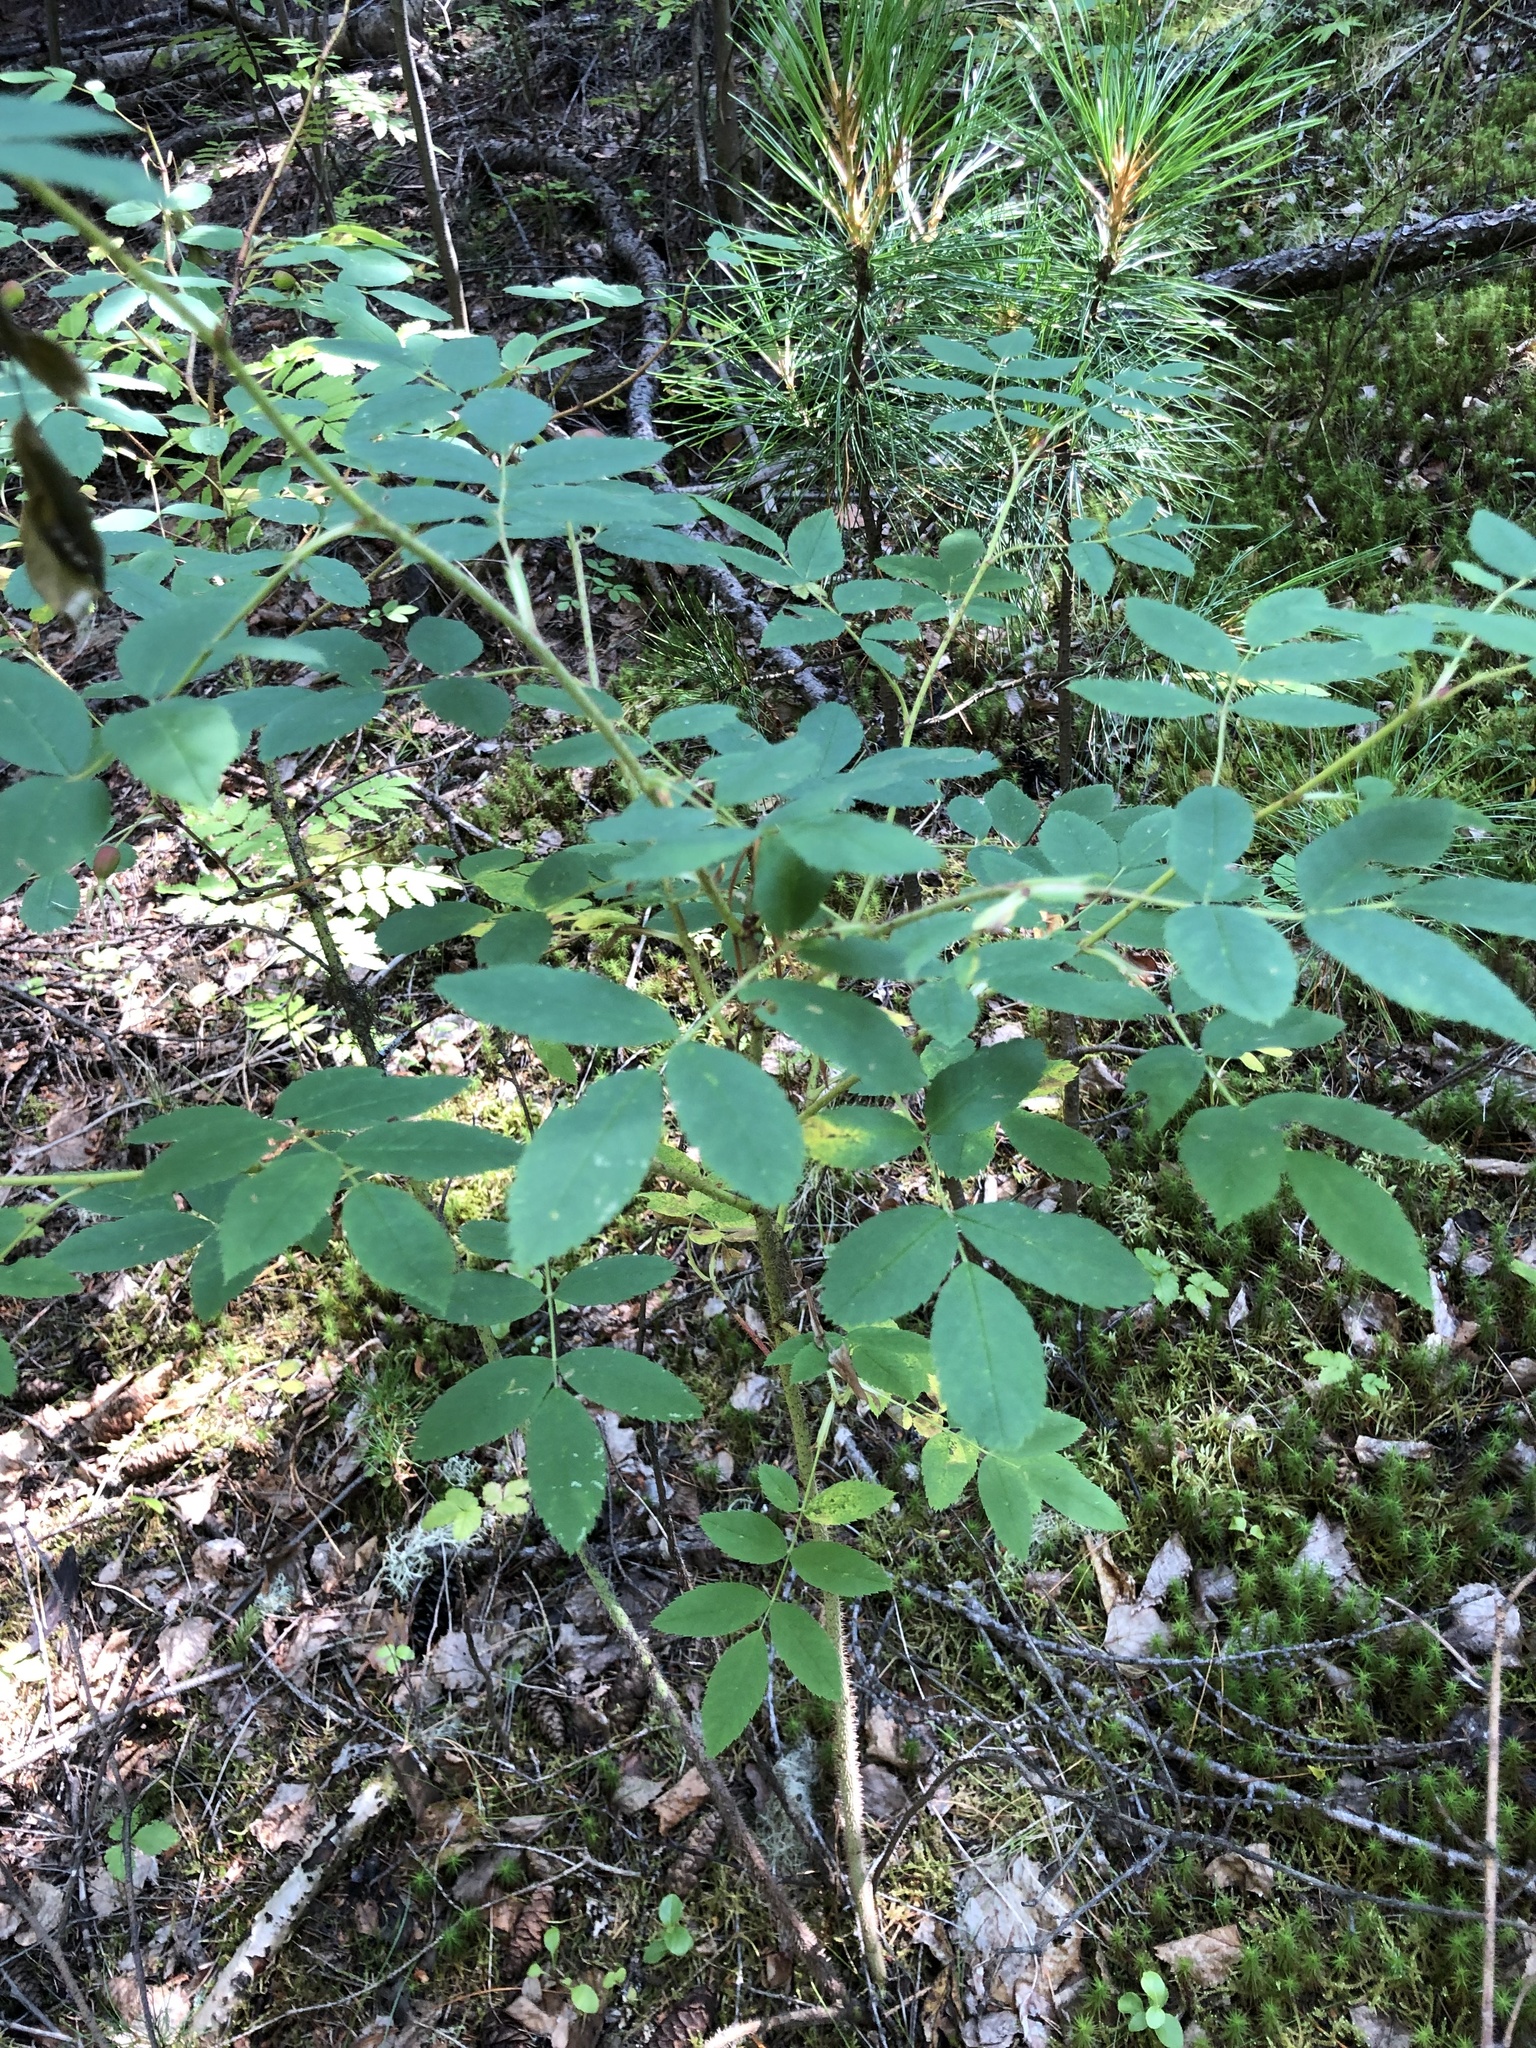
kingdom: Plantae
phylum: Tracheophyta
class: Magnoliopsida
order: Rosales
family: Rosaceae
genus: Rosa
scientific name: Rosa acicularis
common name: Prickly rose
